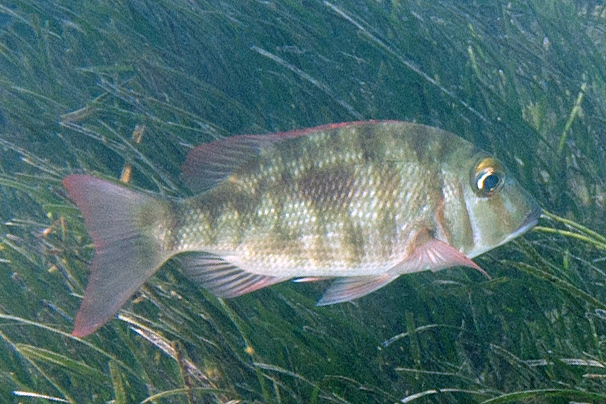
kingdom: Animalia
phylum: Chordata
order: Perciformes
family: Lethrinidae
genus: Lethrinus
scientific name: Lethrinus harak
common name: Blackspot emperor
